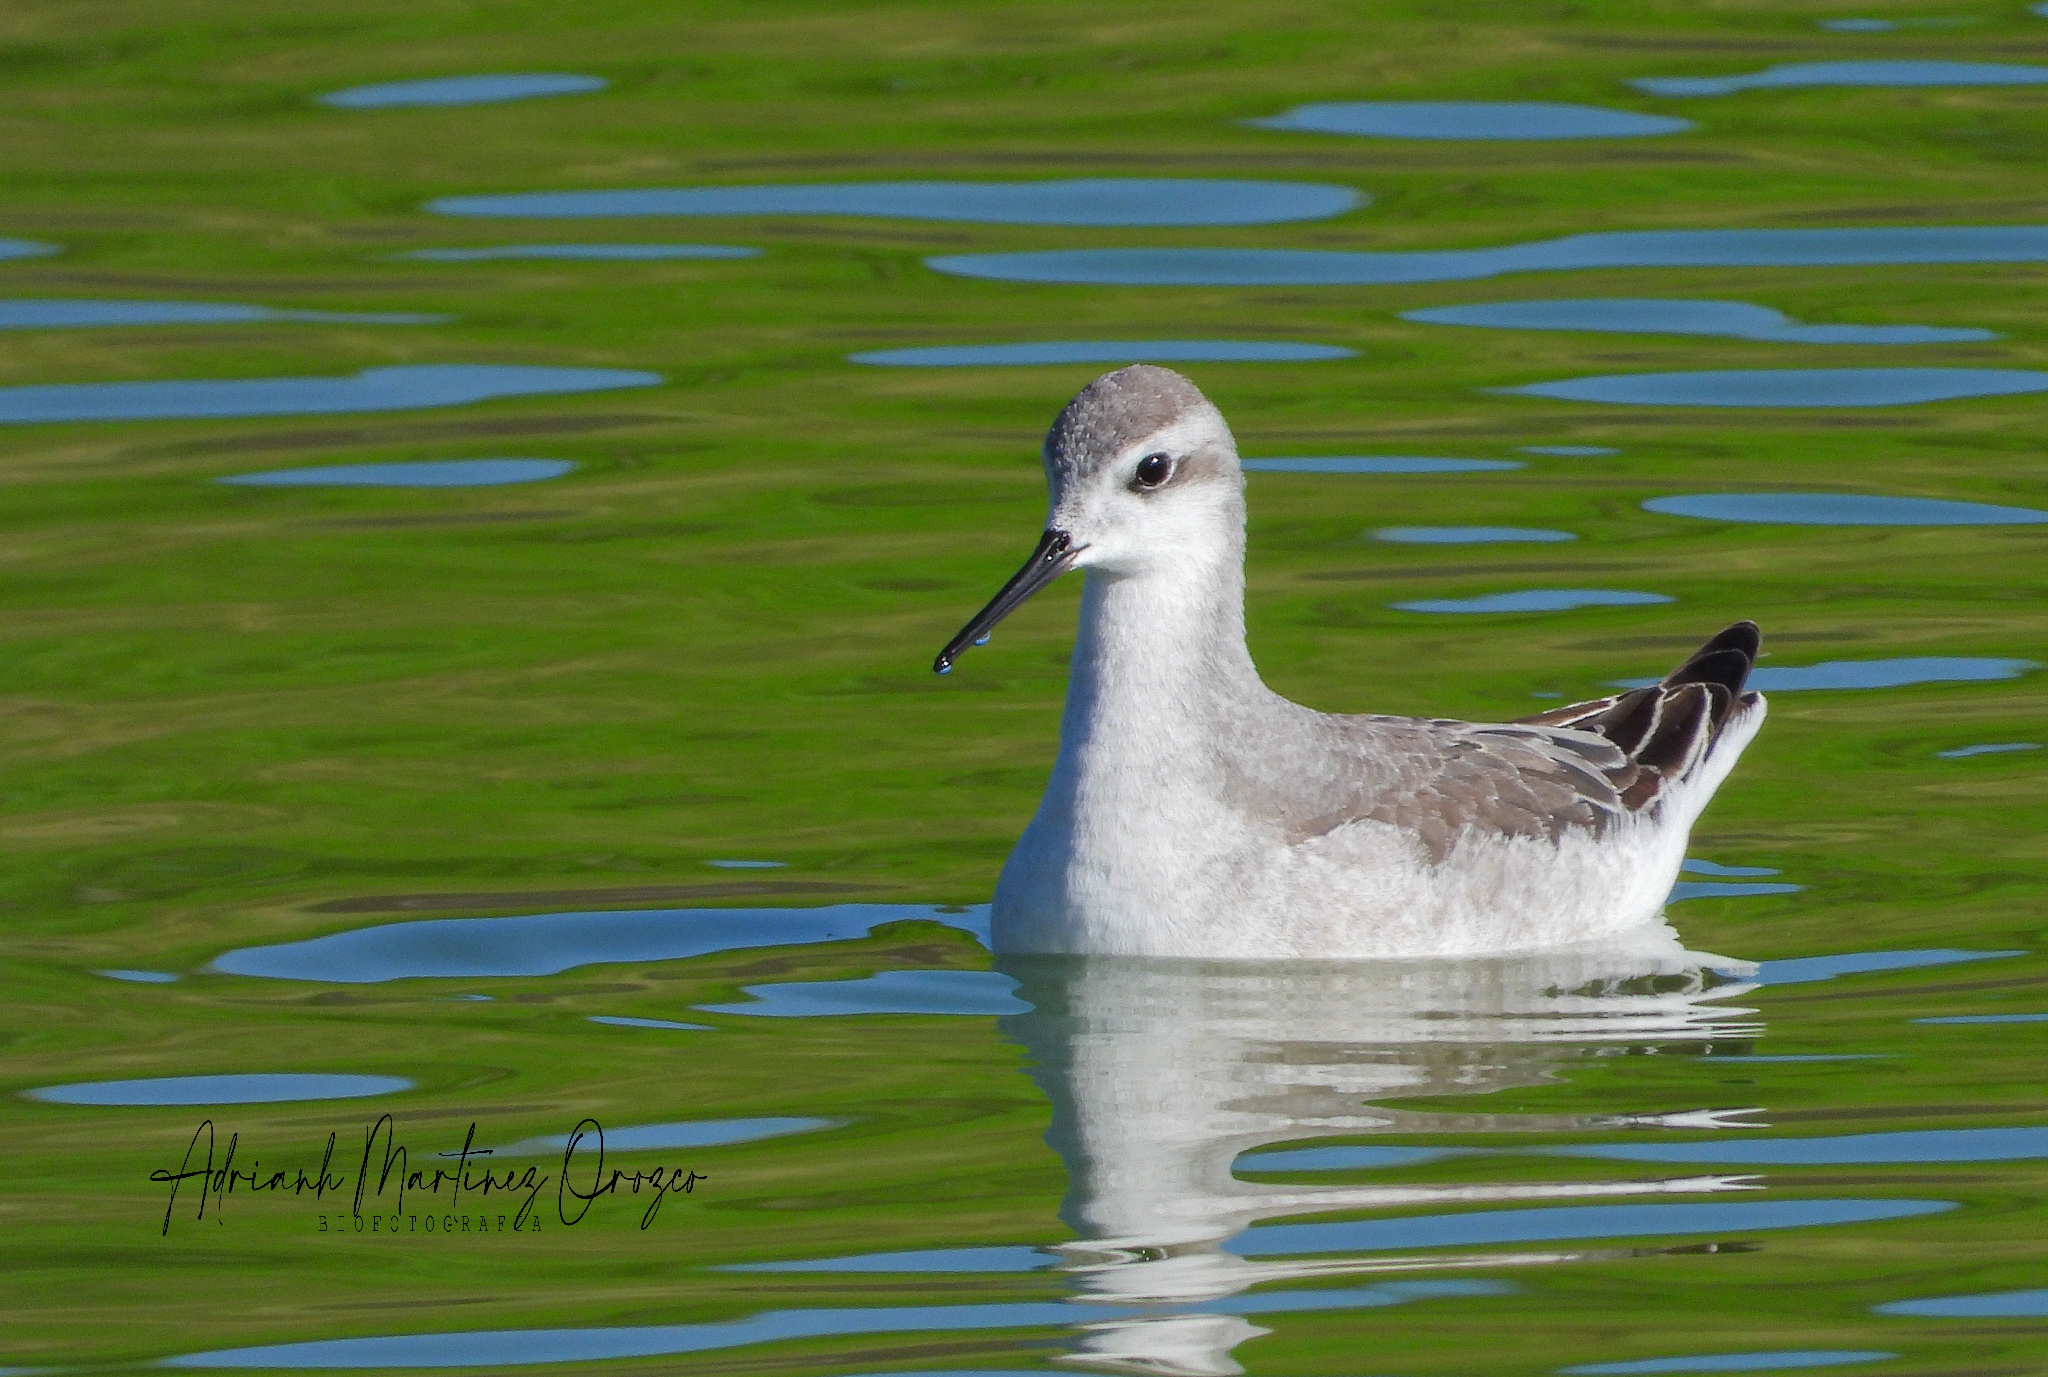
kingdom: Animalia
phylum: Chordata
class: Aves
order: Charadriiformes
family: Scolopacidae
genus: Phalaropus
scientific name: Phalaropus tricolor
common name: Wilson's phalarope
